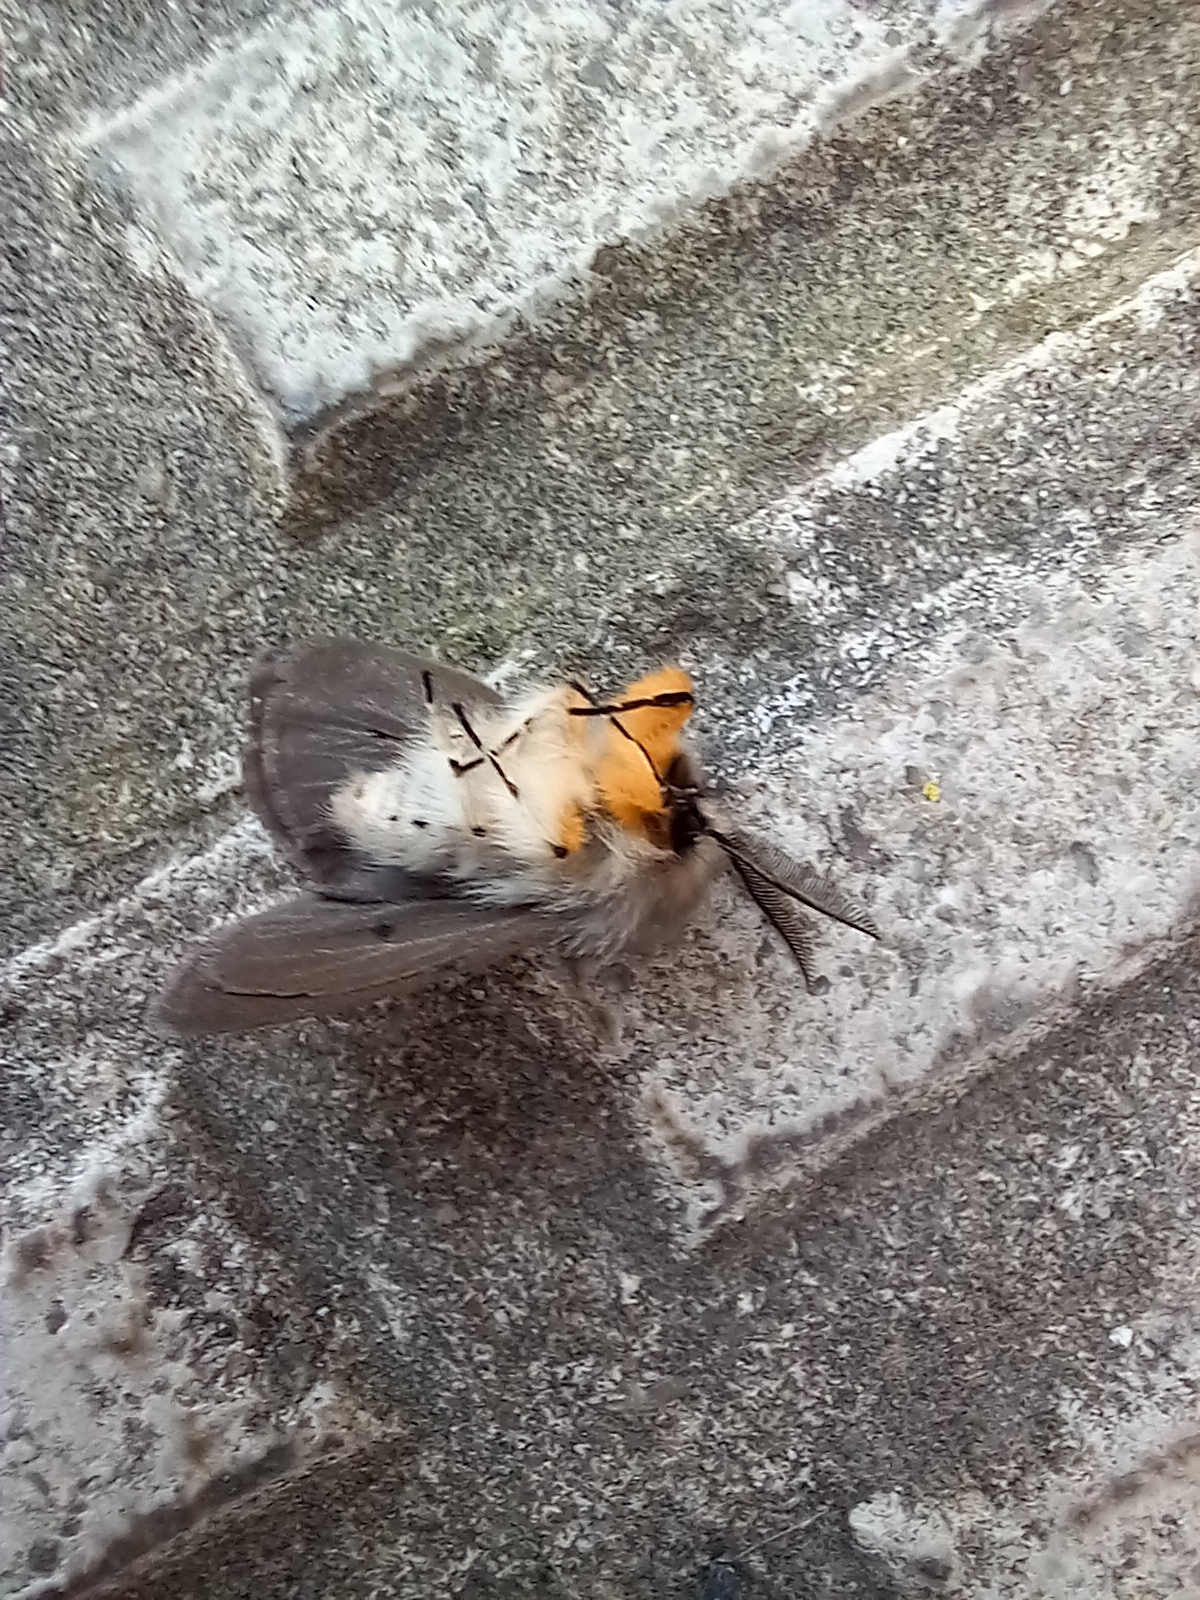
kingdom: Animalia
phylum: Arthropoda
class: Insecta
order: Lepidoptera
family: Erebidae
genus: Diaphora
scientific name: Diaphora mendica
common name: Muslin moth
